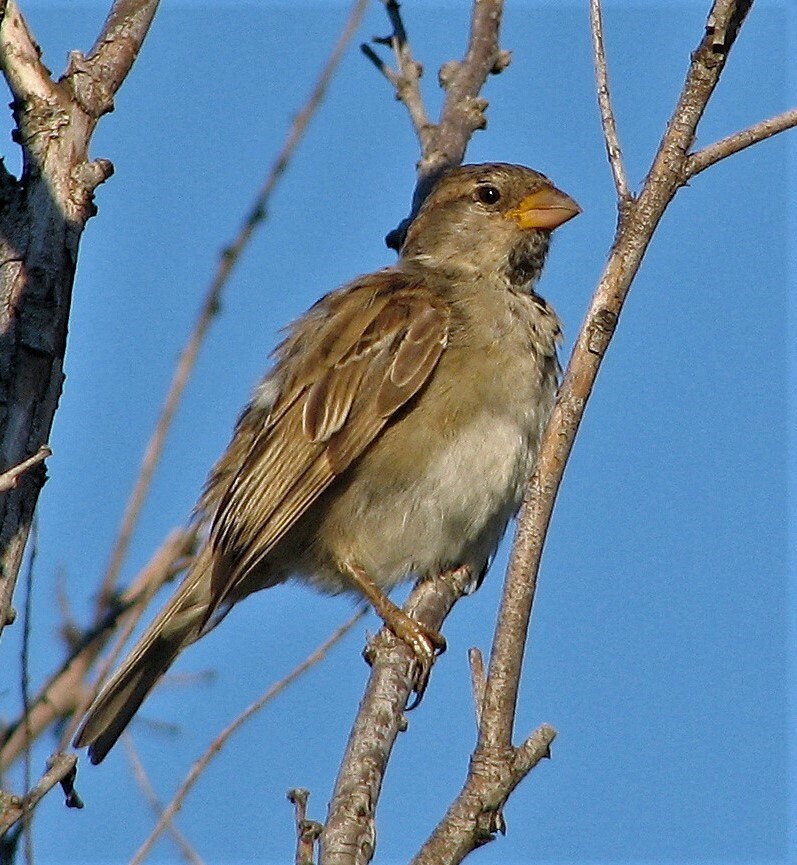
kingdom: Animalia
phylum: Chordata
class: Aves
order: Passeriformes
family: Passeridae
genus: Passer
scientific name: Passer domesticus
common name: House sparrow
